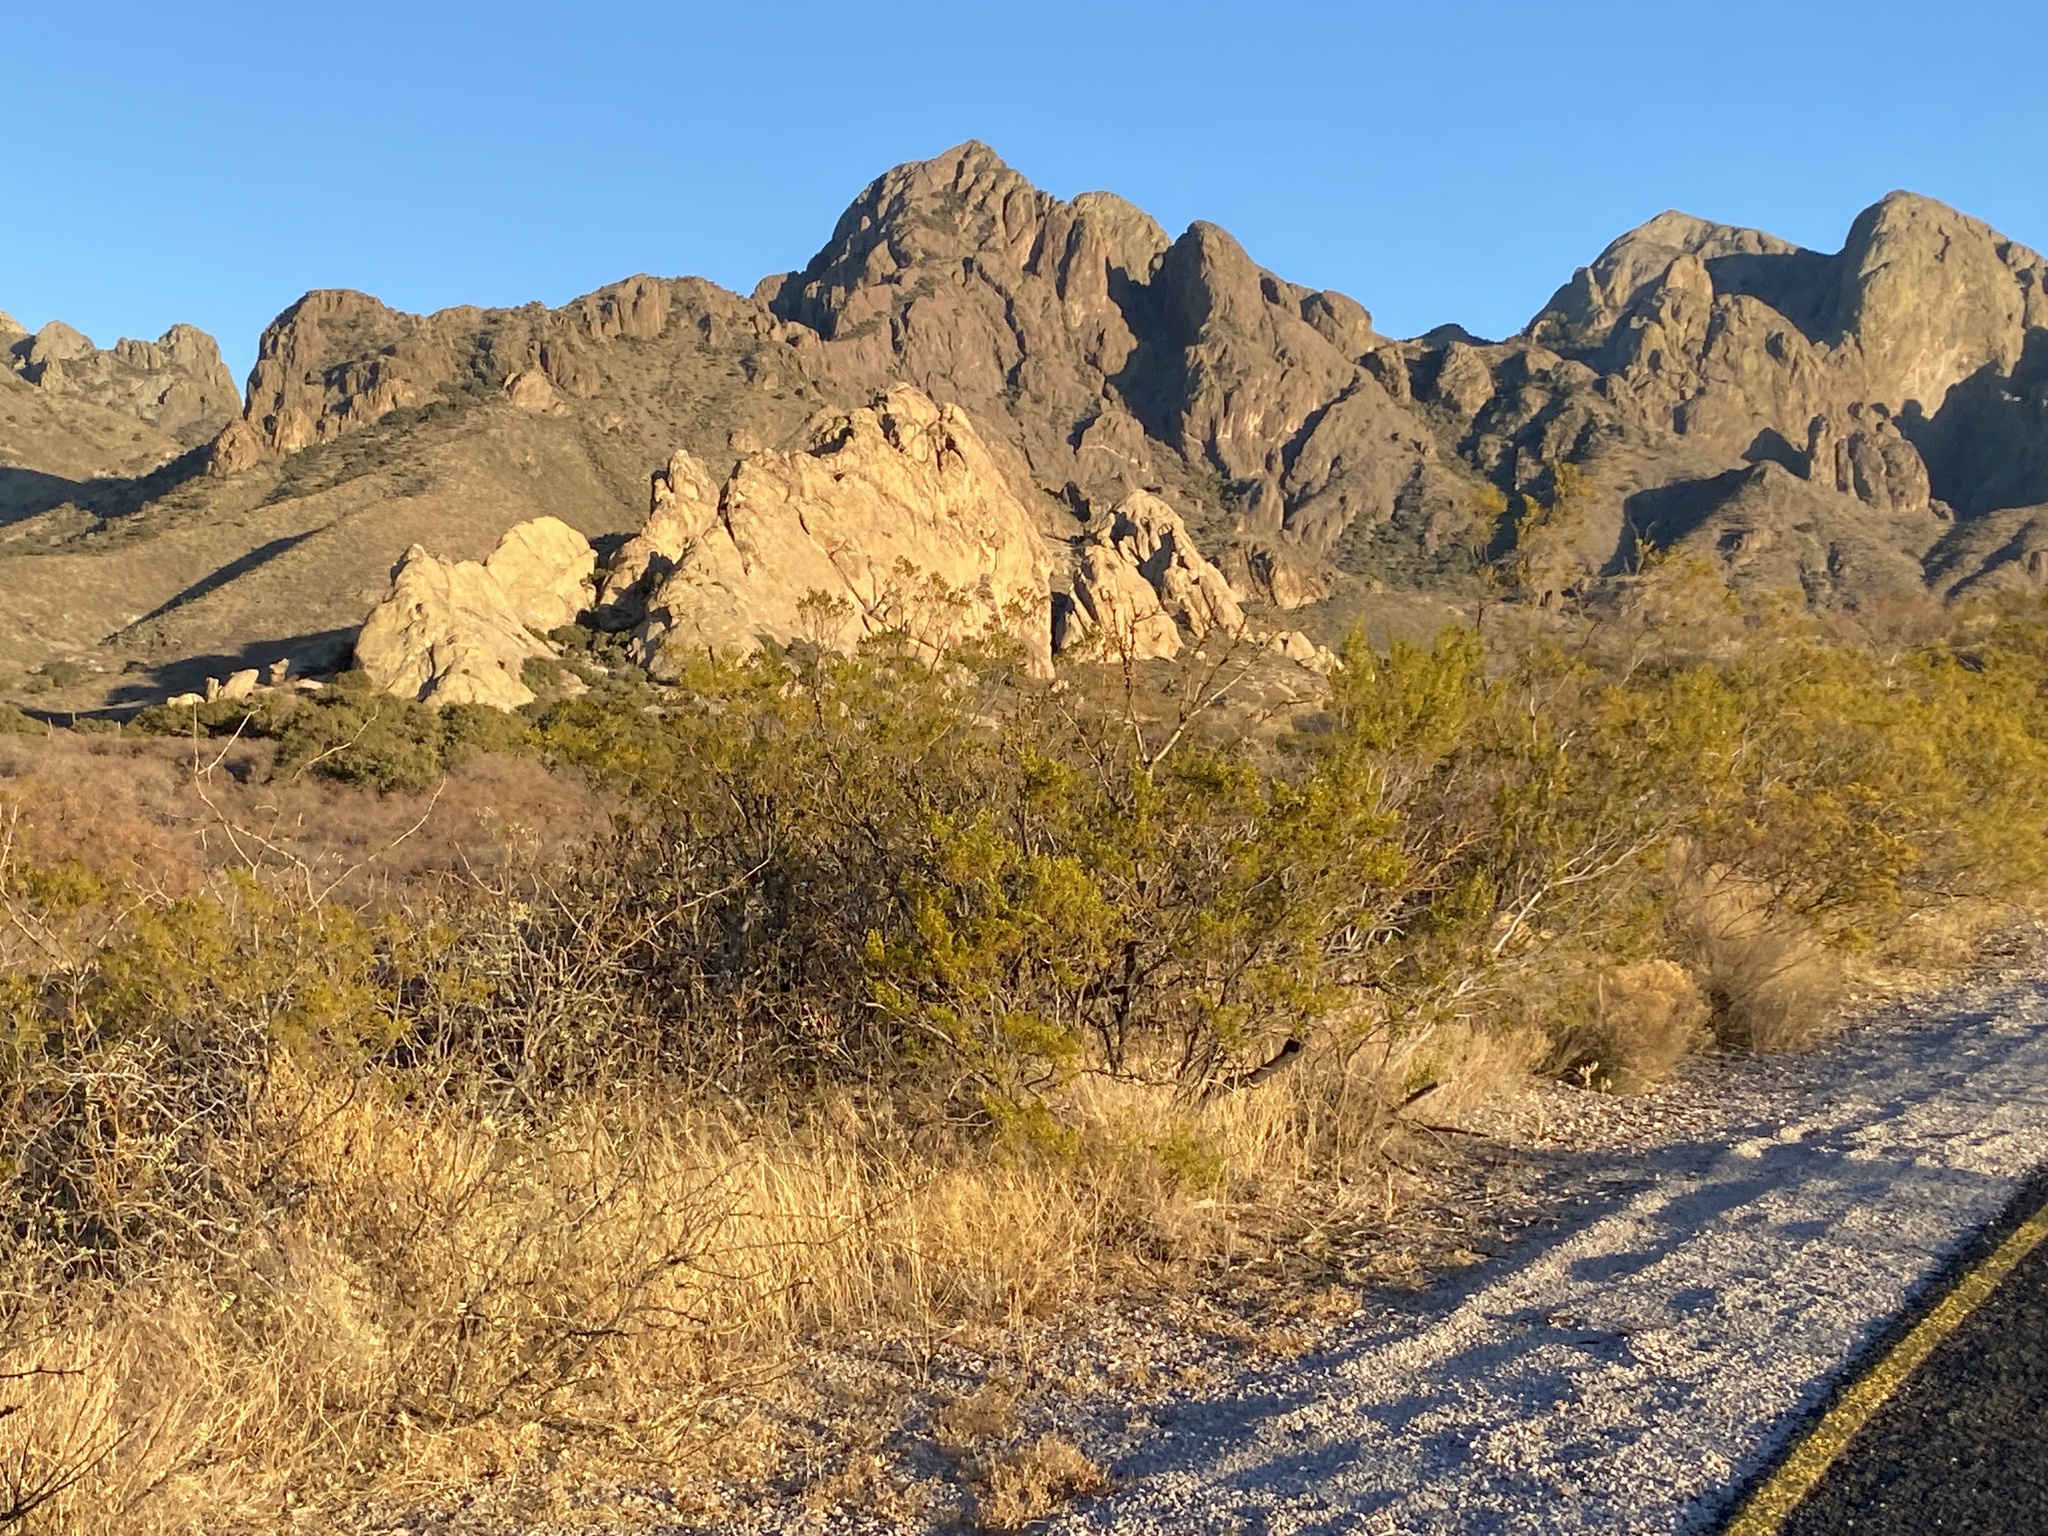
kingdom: Plantae
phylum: Tracheophyta
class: Magnoliopsida
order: Zygophyllales
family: Zygophyllaceae
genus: Larrea
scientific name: Larrea tridentata
